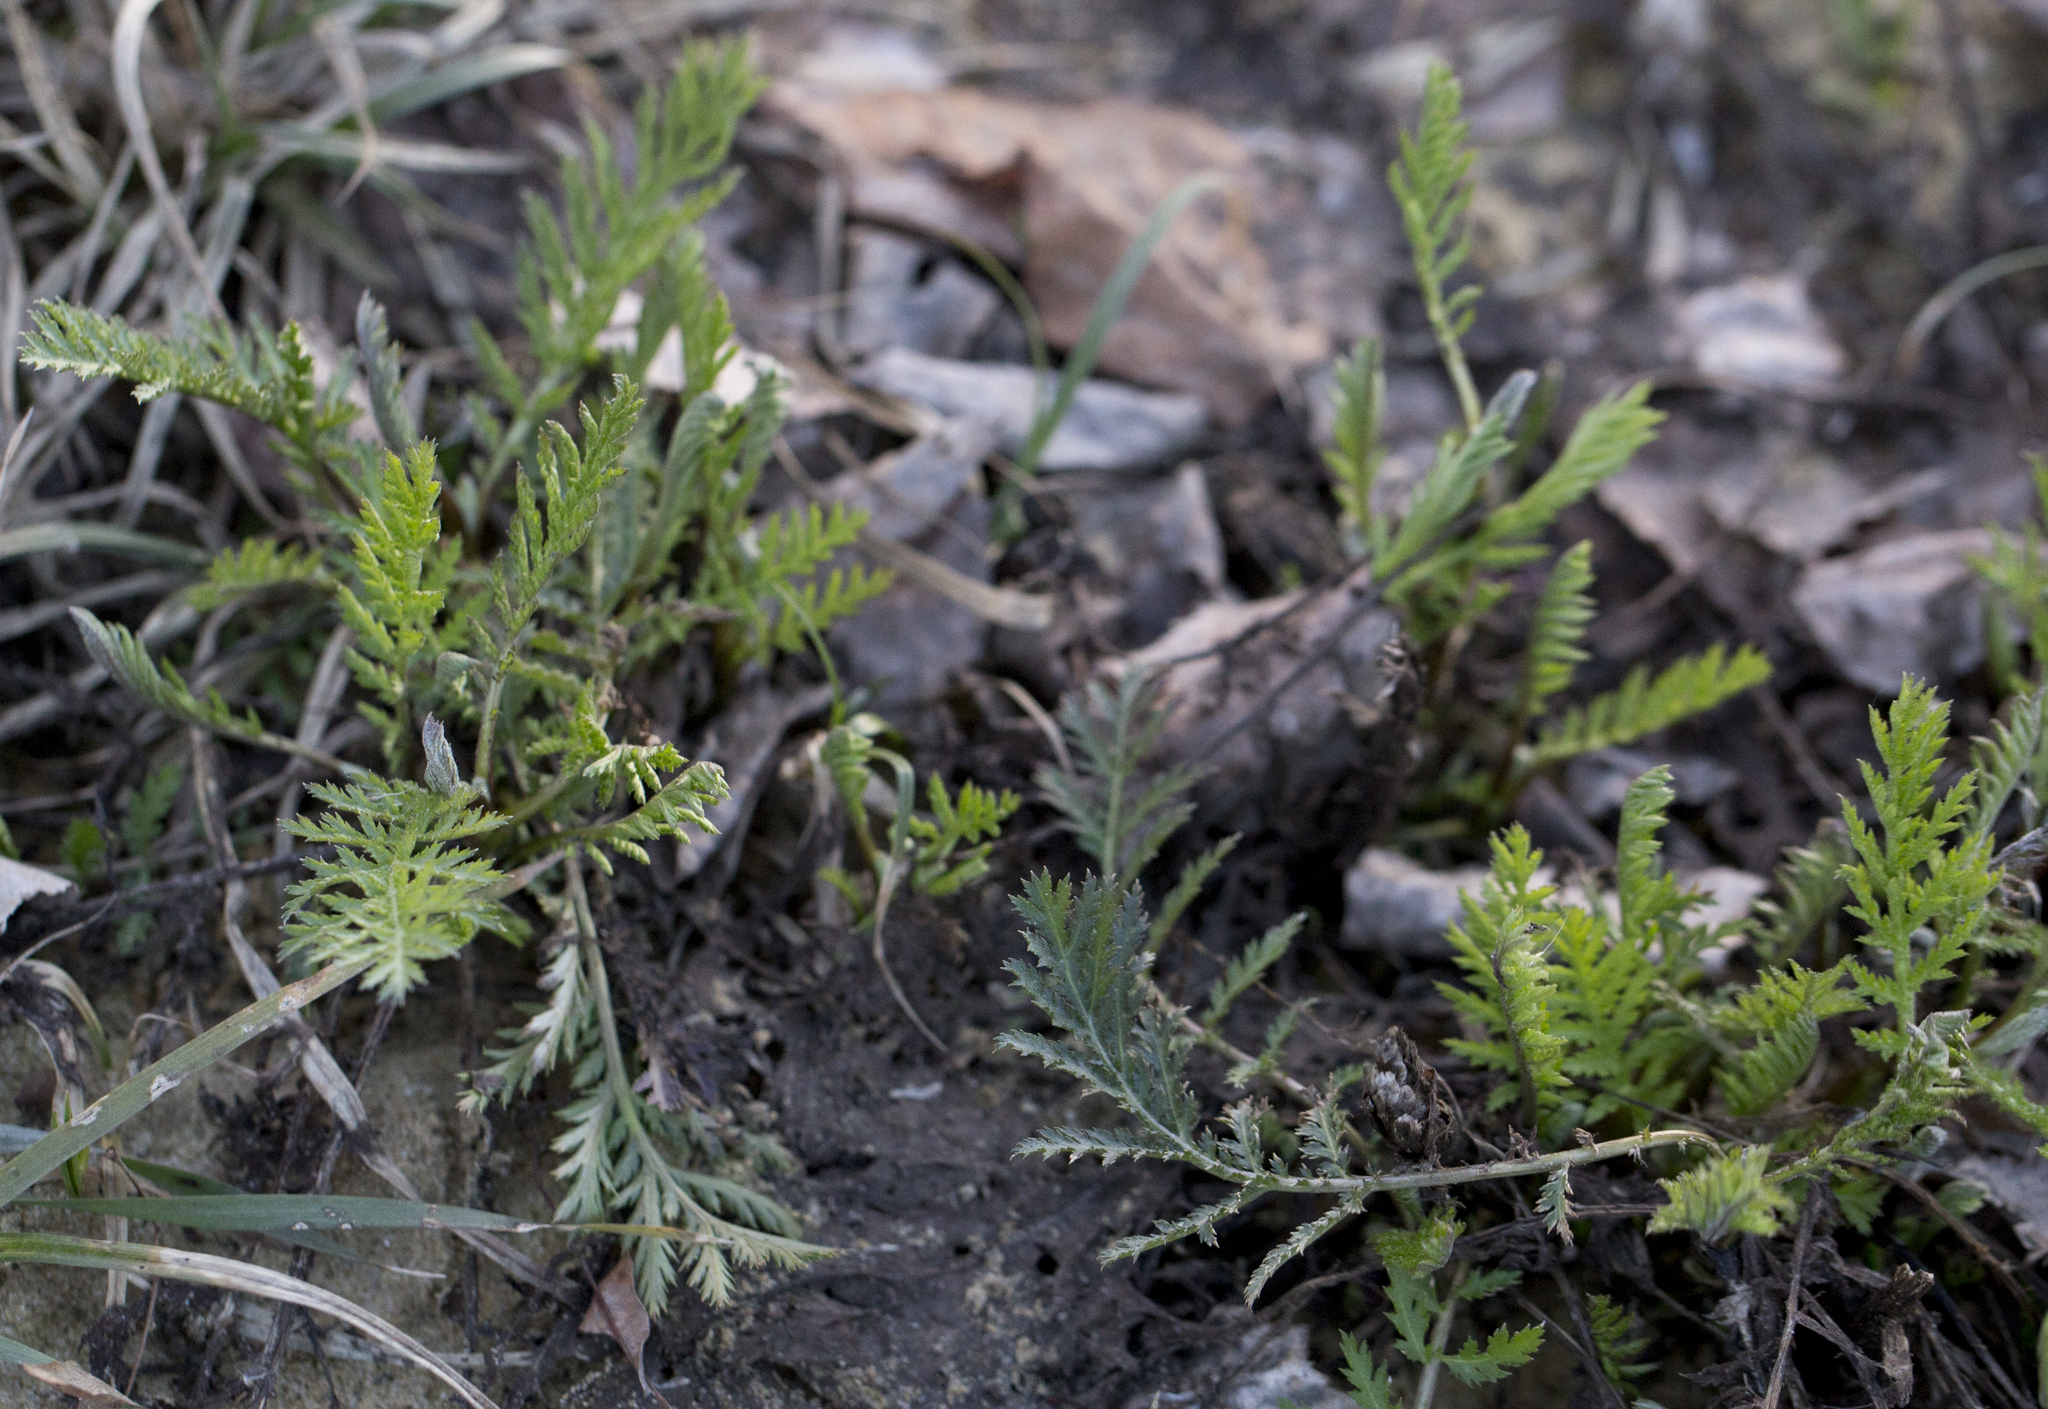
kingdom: Plantae
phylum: Tracheophyta
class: Magnoliopsida
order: Asterales
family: Asteraceae
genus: Tanacetum
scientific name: Tanacetum vulgare
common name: Common tansy
